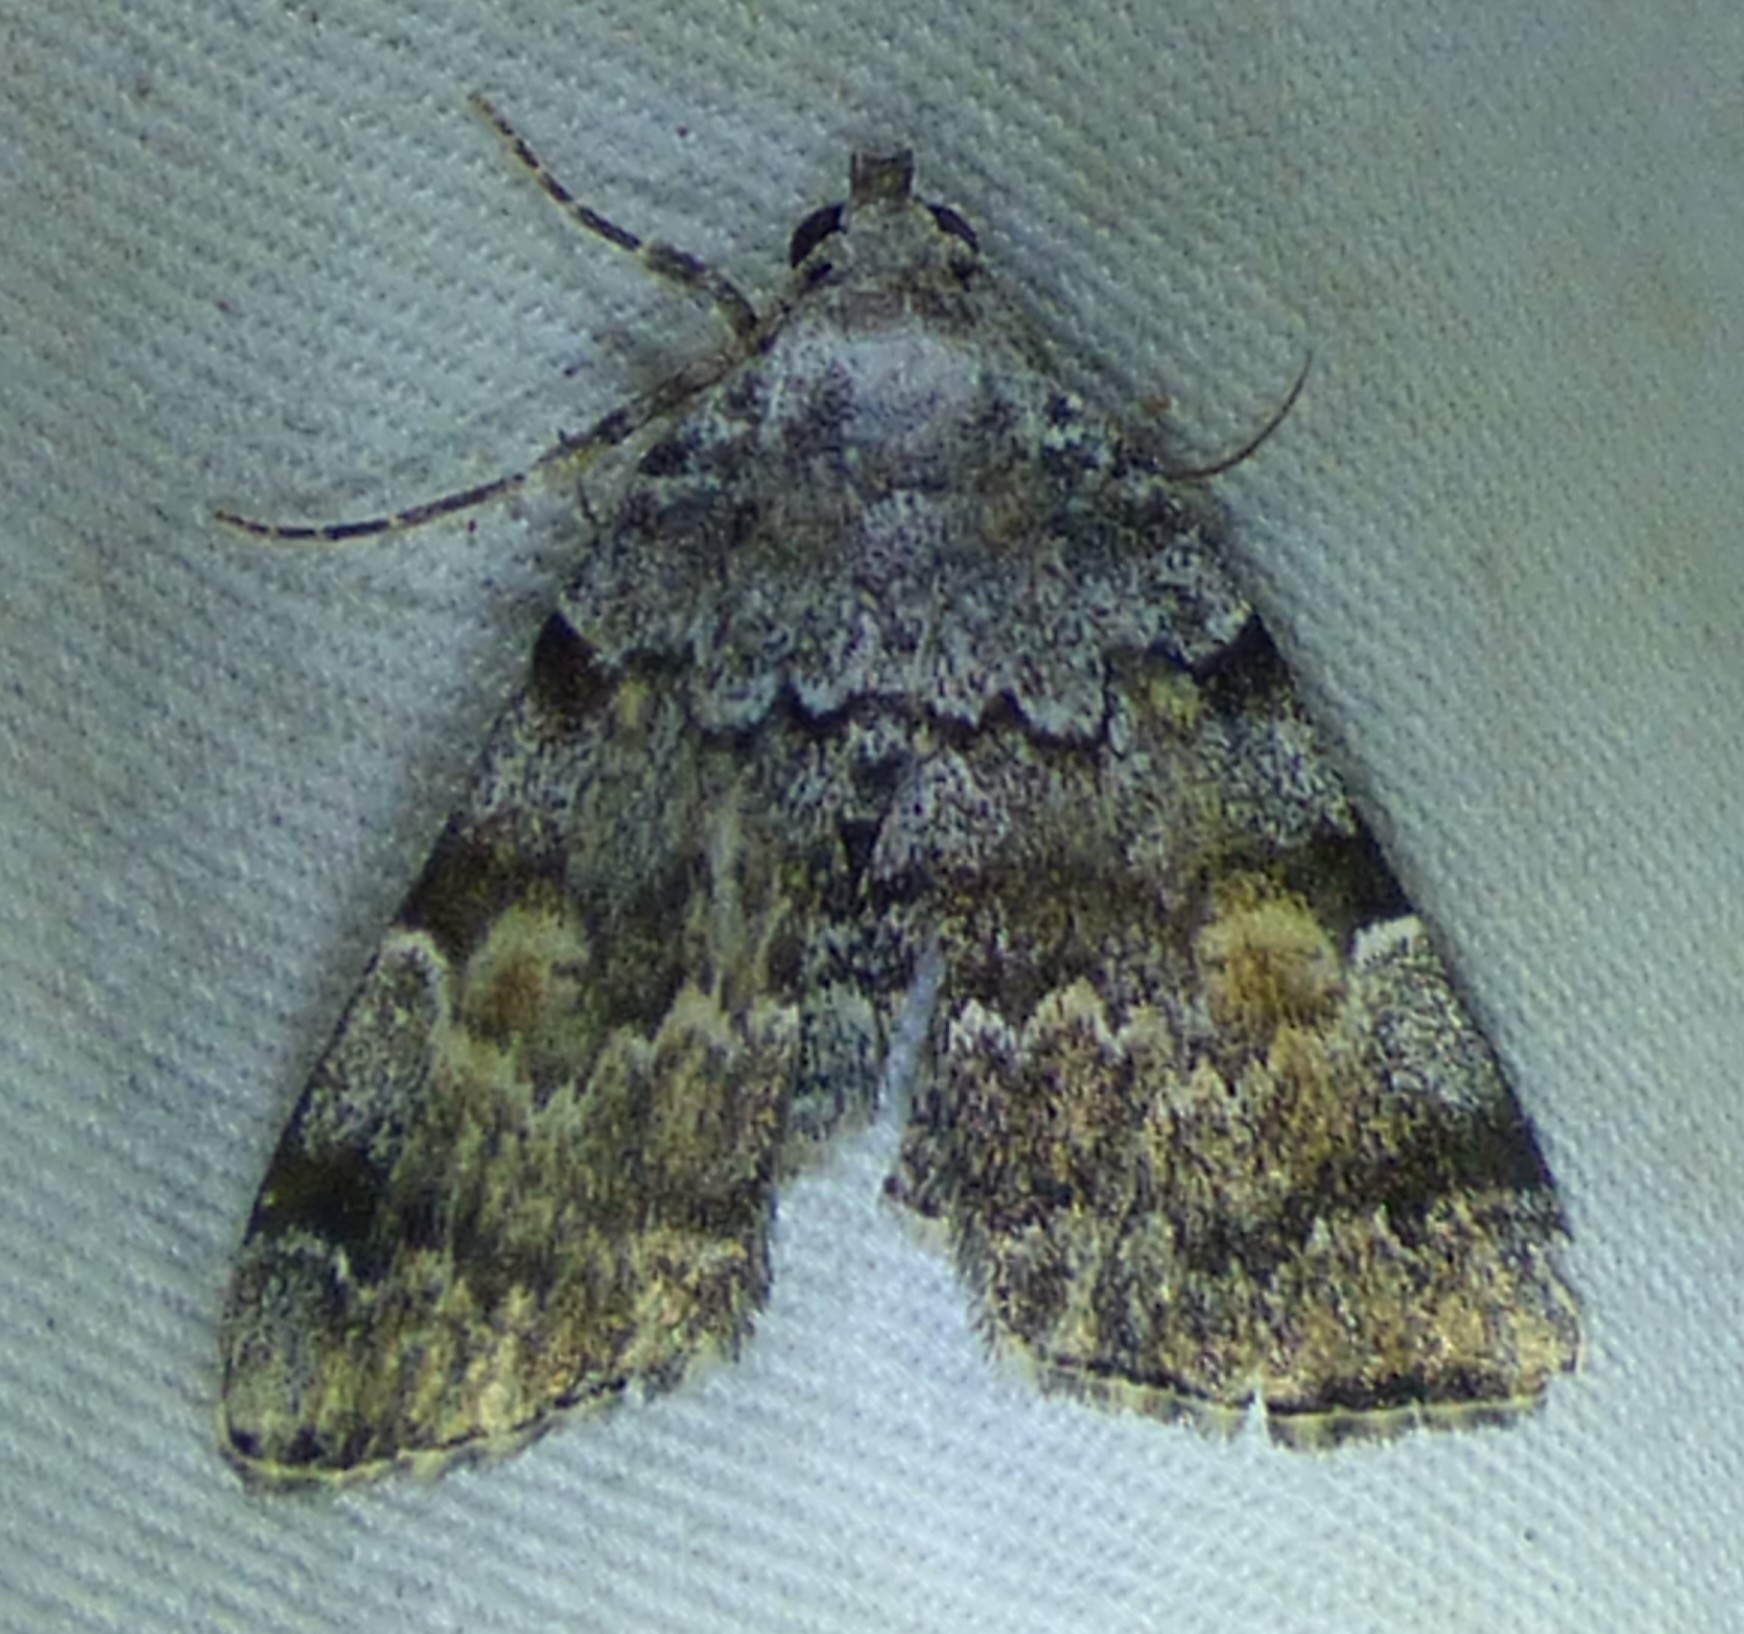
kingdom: Animalia
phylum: Arthropoda
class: Insecta
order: Lepidoptera
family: Erebidae
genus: Idia
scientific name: Idia americalis
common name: American idia moth
